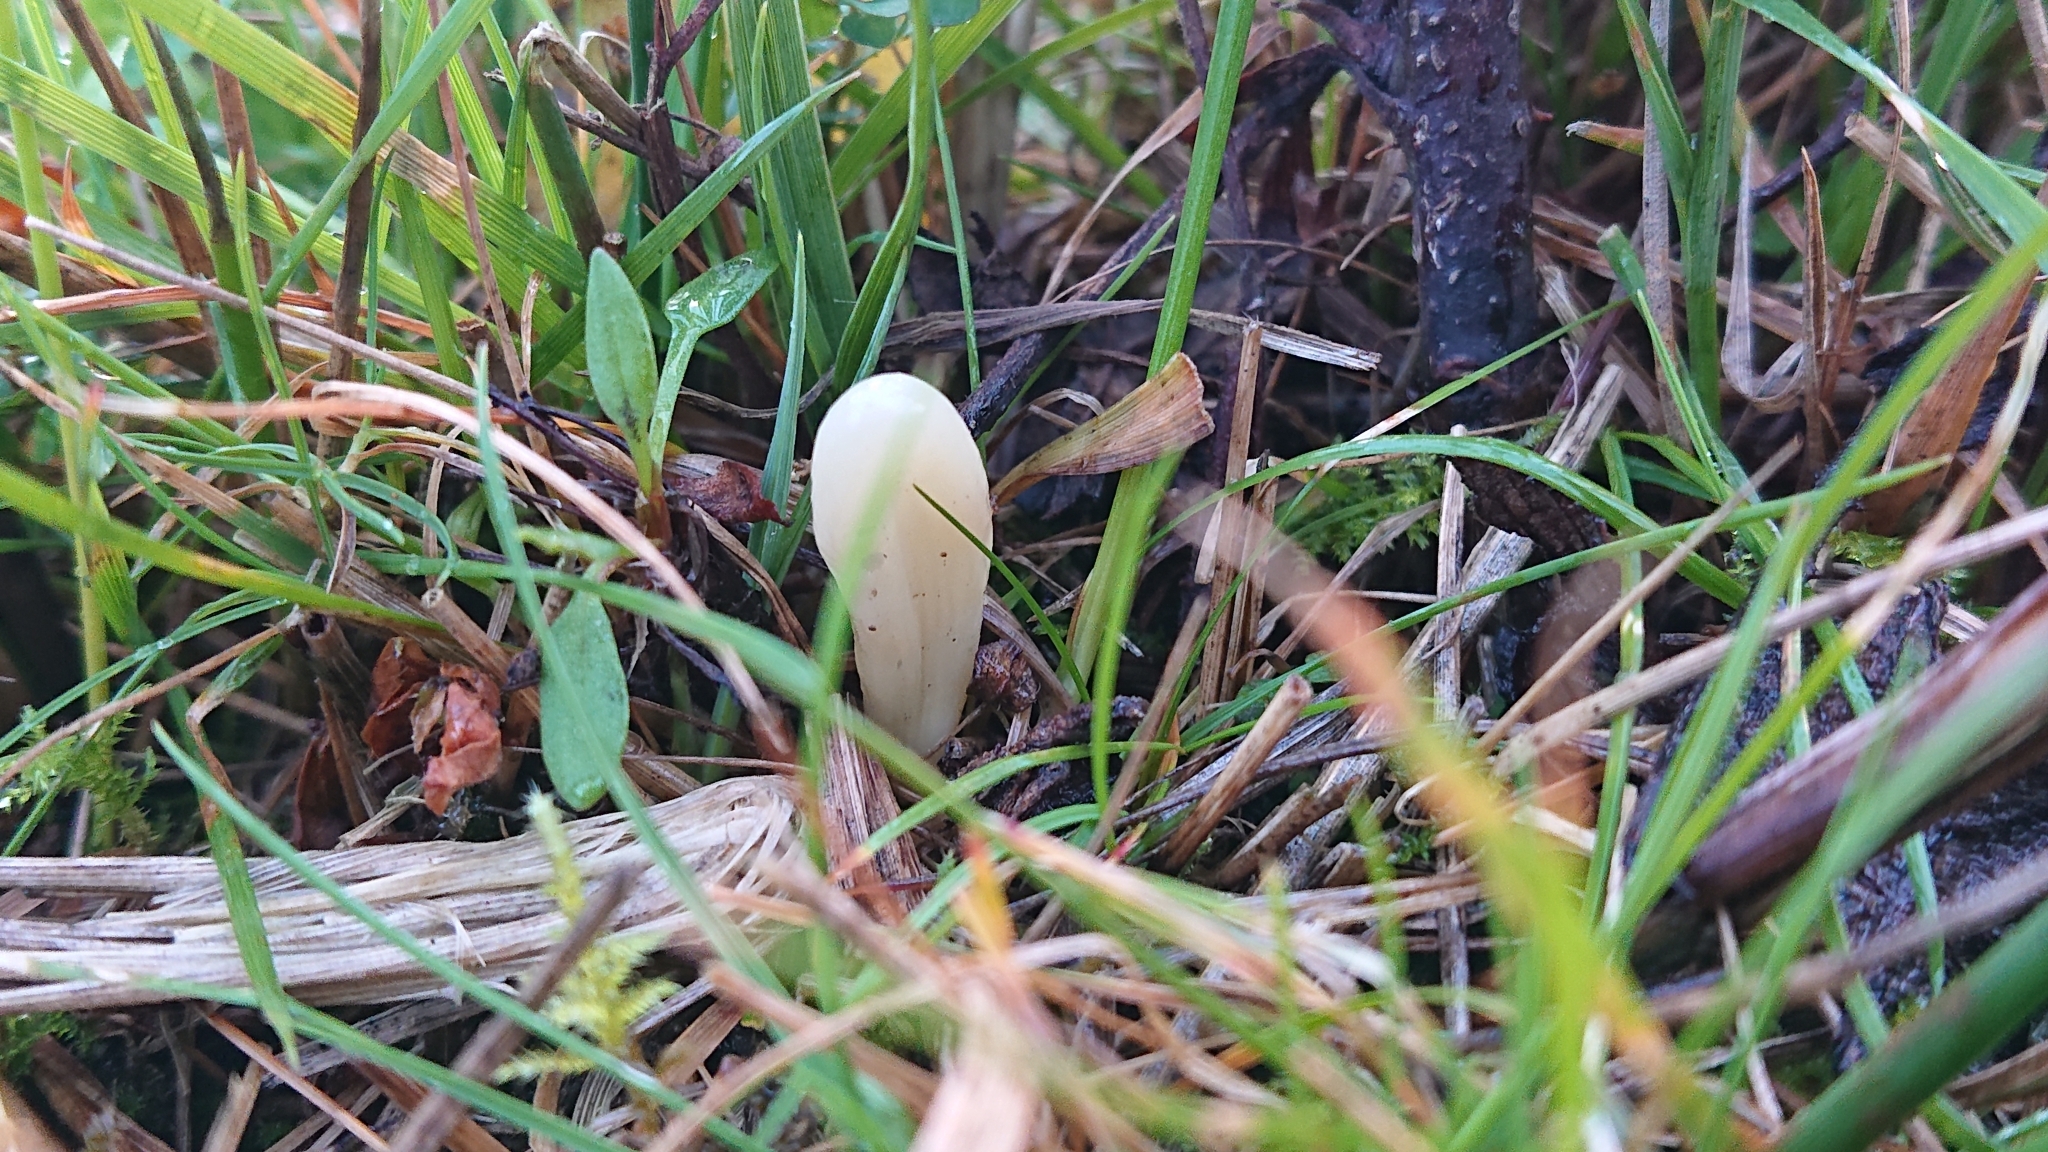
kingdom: Fungi
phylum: Basidiomycota
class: Agaricomycetes
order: Agaricales
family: Clavariaceae
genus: Clavaria
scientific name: Clavaria tenuipes
